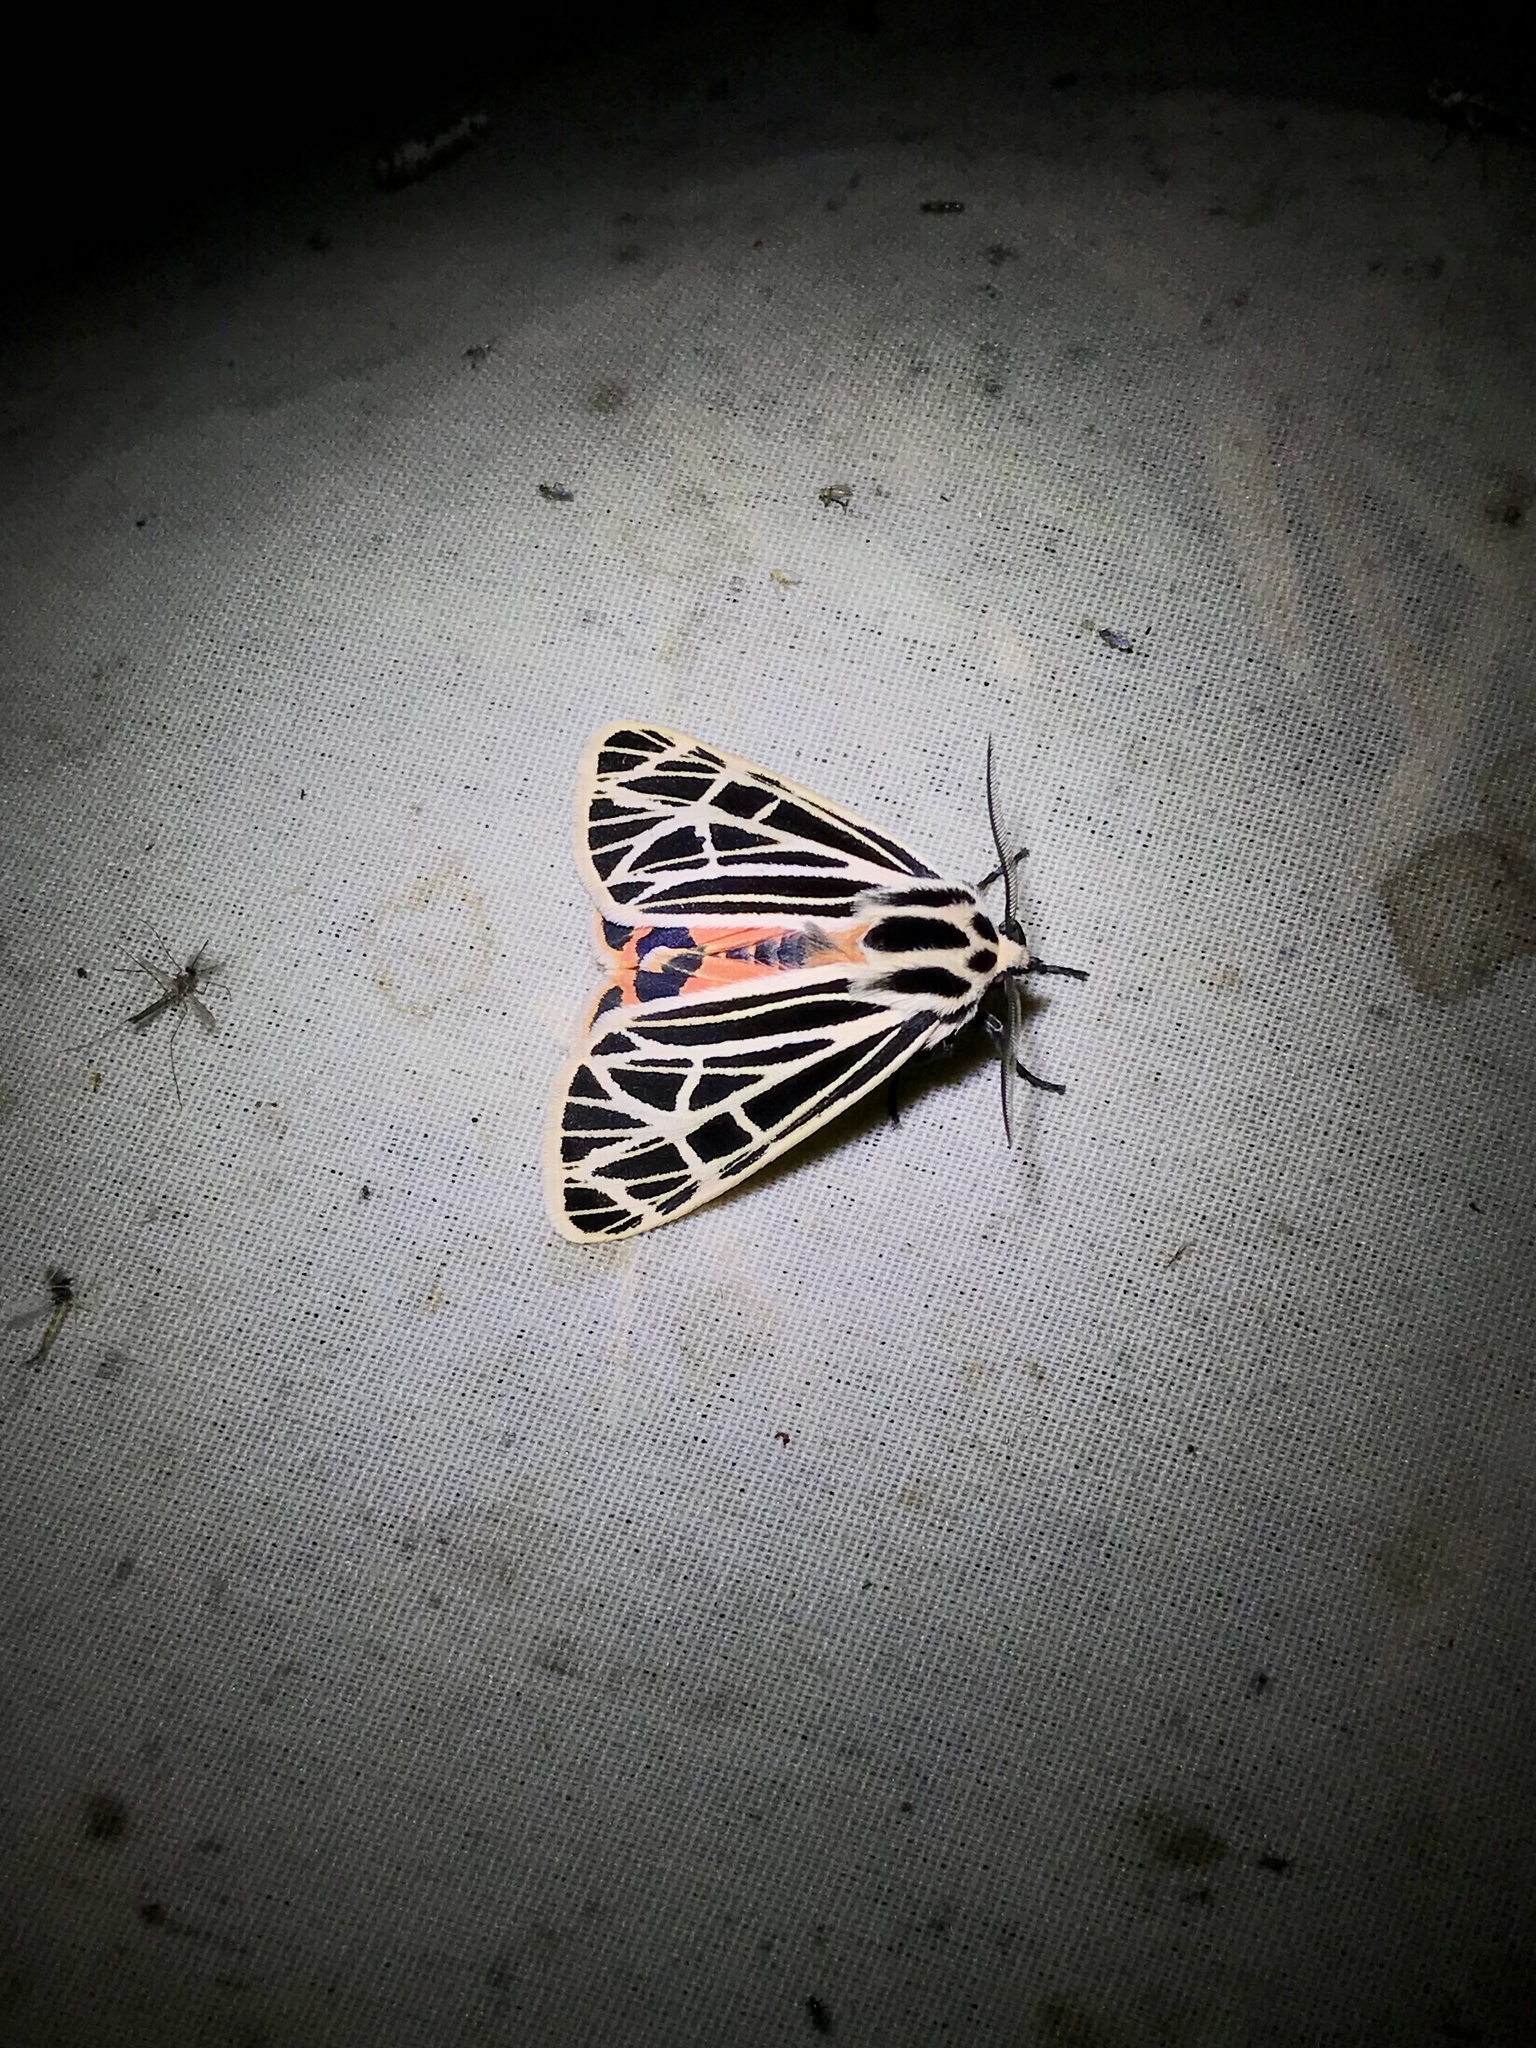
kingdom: Animalia
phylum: Arthropoda
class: Insecta
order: Lepidoptera
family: Erebidae
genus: Grammia
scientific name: Grammia virgo
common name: Virgin tiger moth
